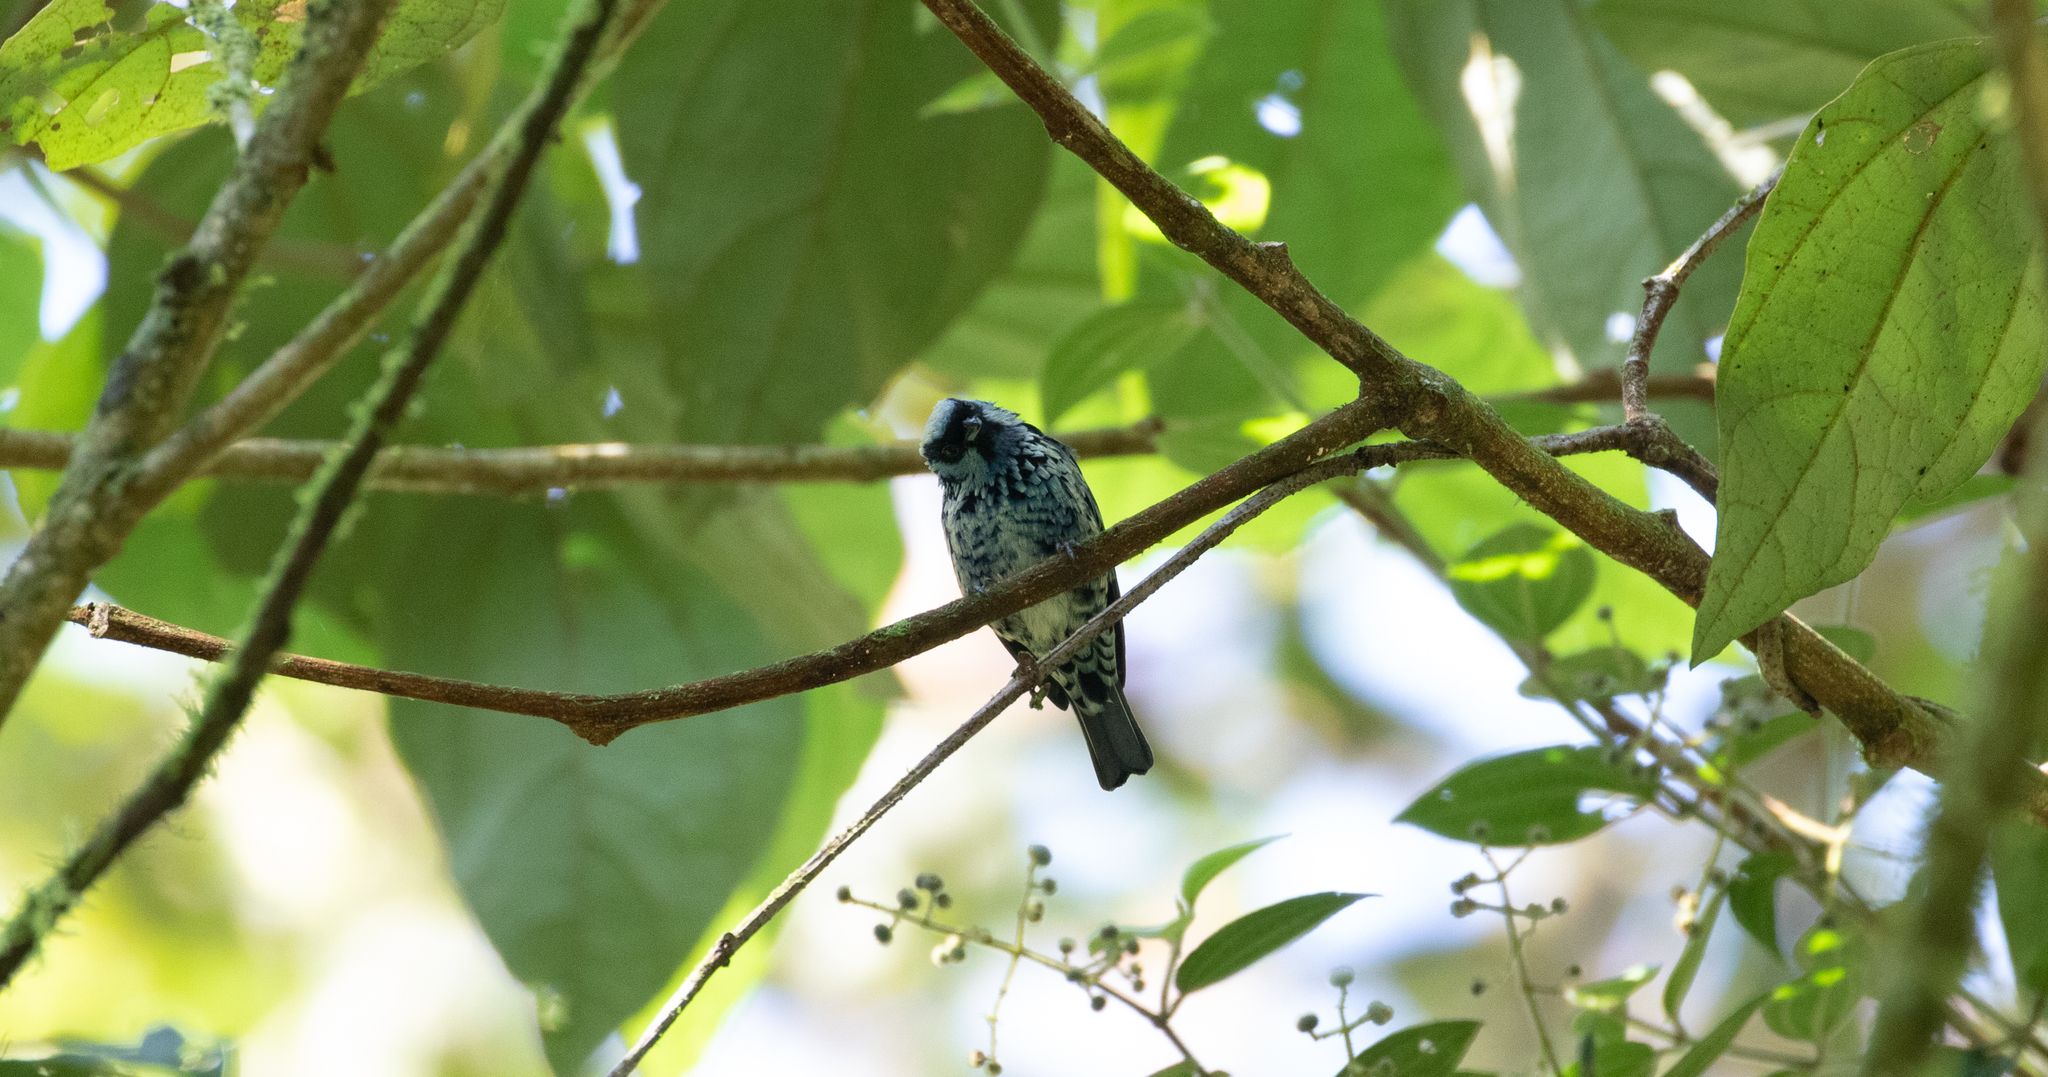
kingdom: Animalia
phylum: Chordata
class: Aves
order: Passeriformes
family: Thraupidae
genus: Tangara
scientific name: Tangara nigroviridis
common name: Beryl-spangled tanager
